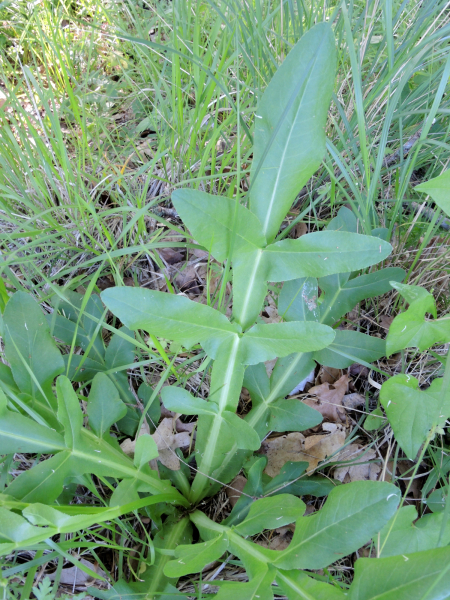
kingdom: Plantae
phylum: Tracheophyta
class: Magnoliopsida
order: Apiales
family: Apiaceae
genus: Heptaptera
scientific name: Heptaptera triquetra
